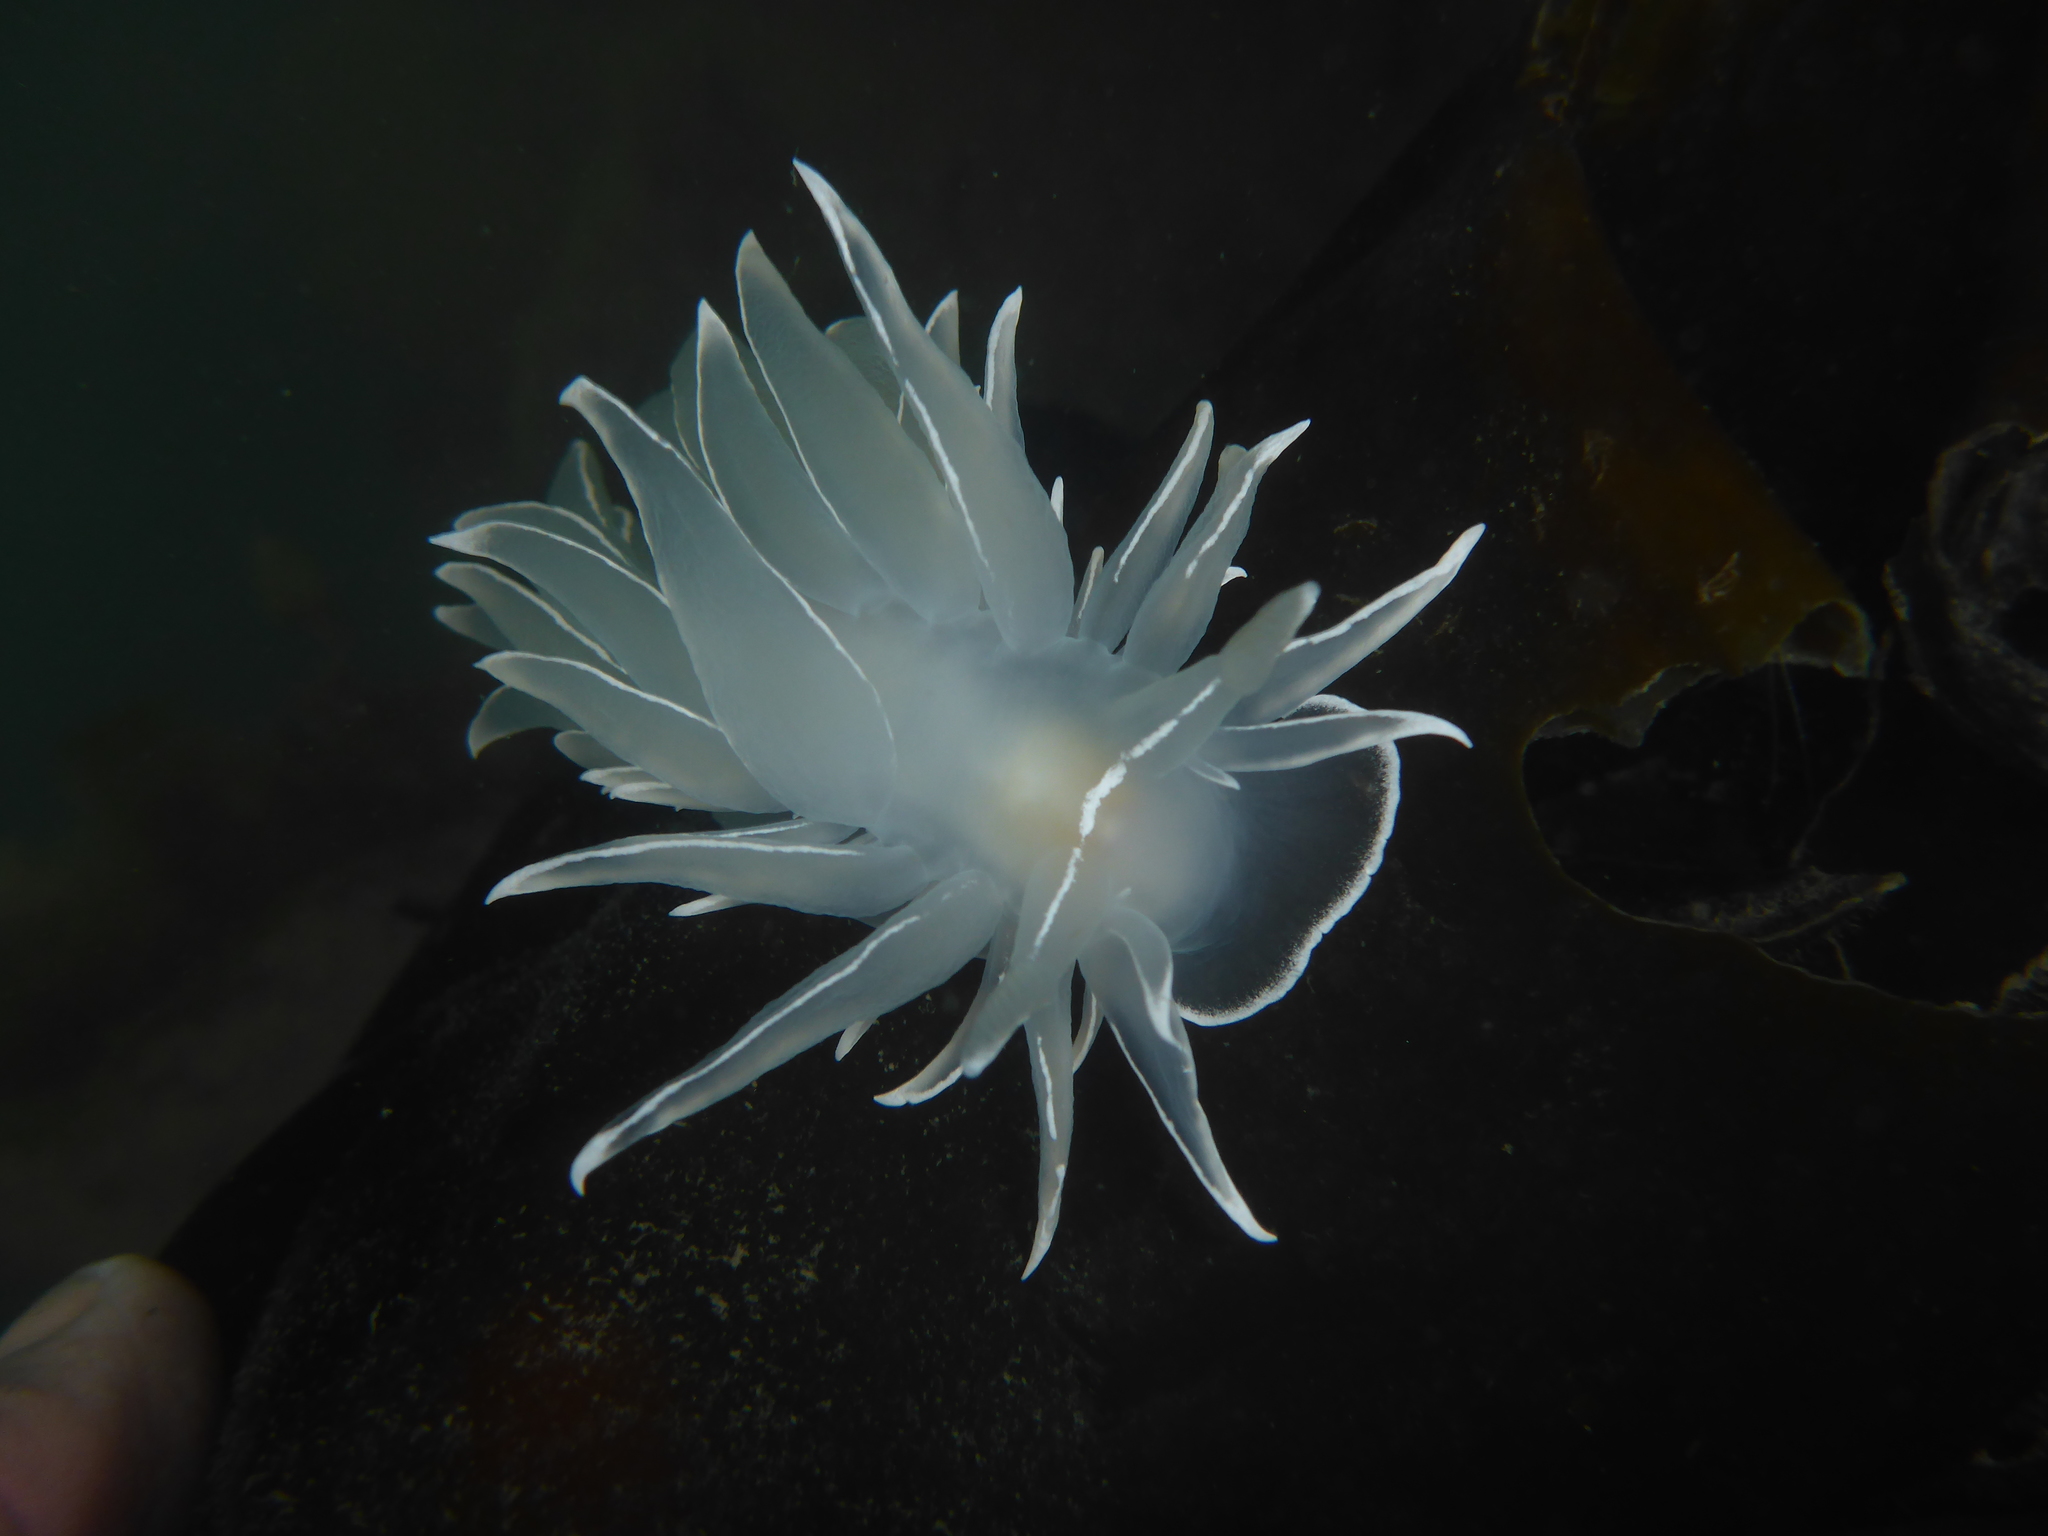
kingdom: Animalia
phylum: Mollusca
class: Gastropoda
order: Nudibranchia
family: Dironidae
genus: Dirona
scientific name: Dirona albolineata
